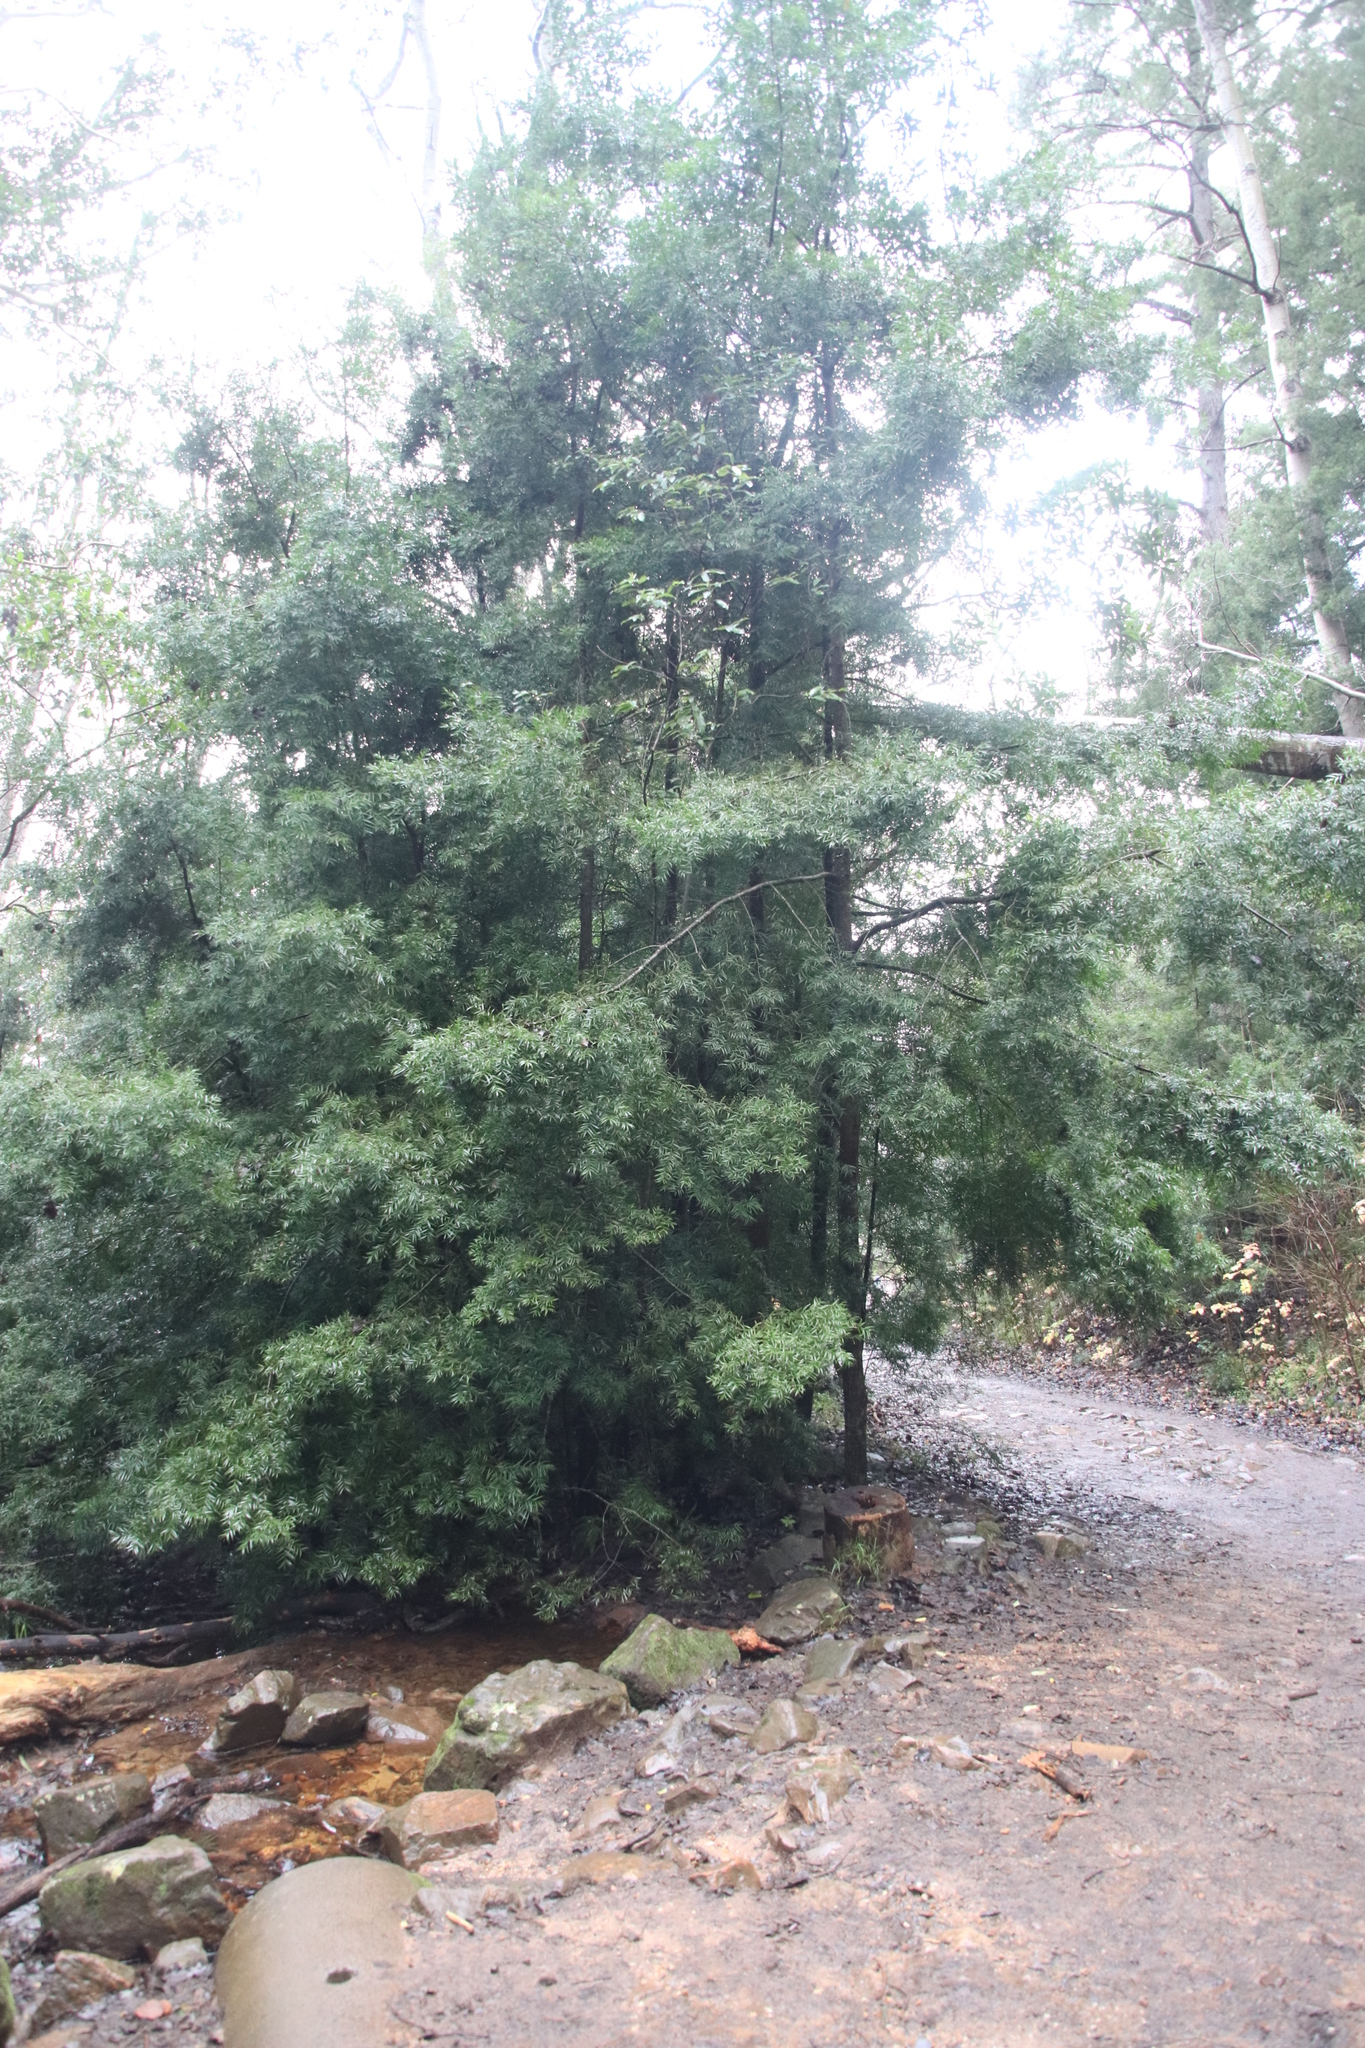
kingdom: Plantae
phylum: Tracheophyta
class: Pinopsida
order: Pinales
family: Podocarpaceae
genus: Afrocarpus
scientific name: Afrocarpus falcatus
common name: Bastard yellowwood
